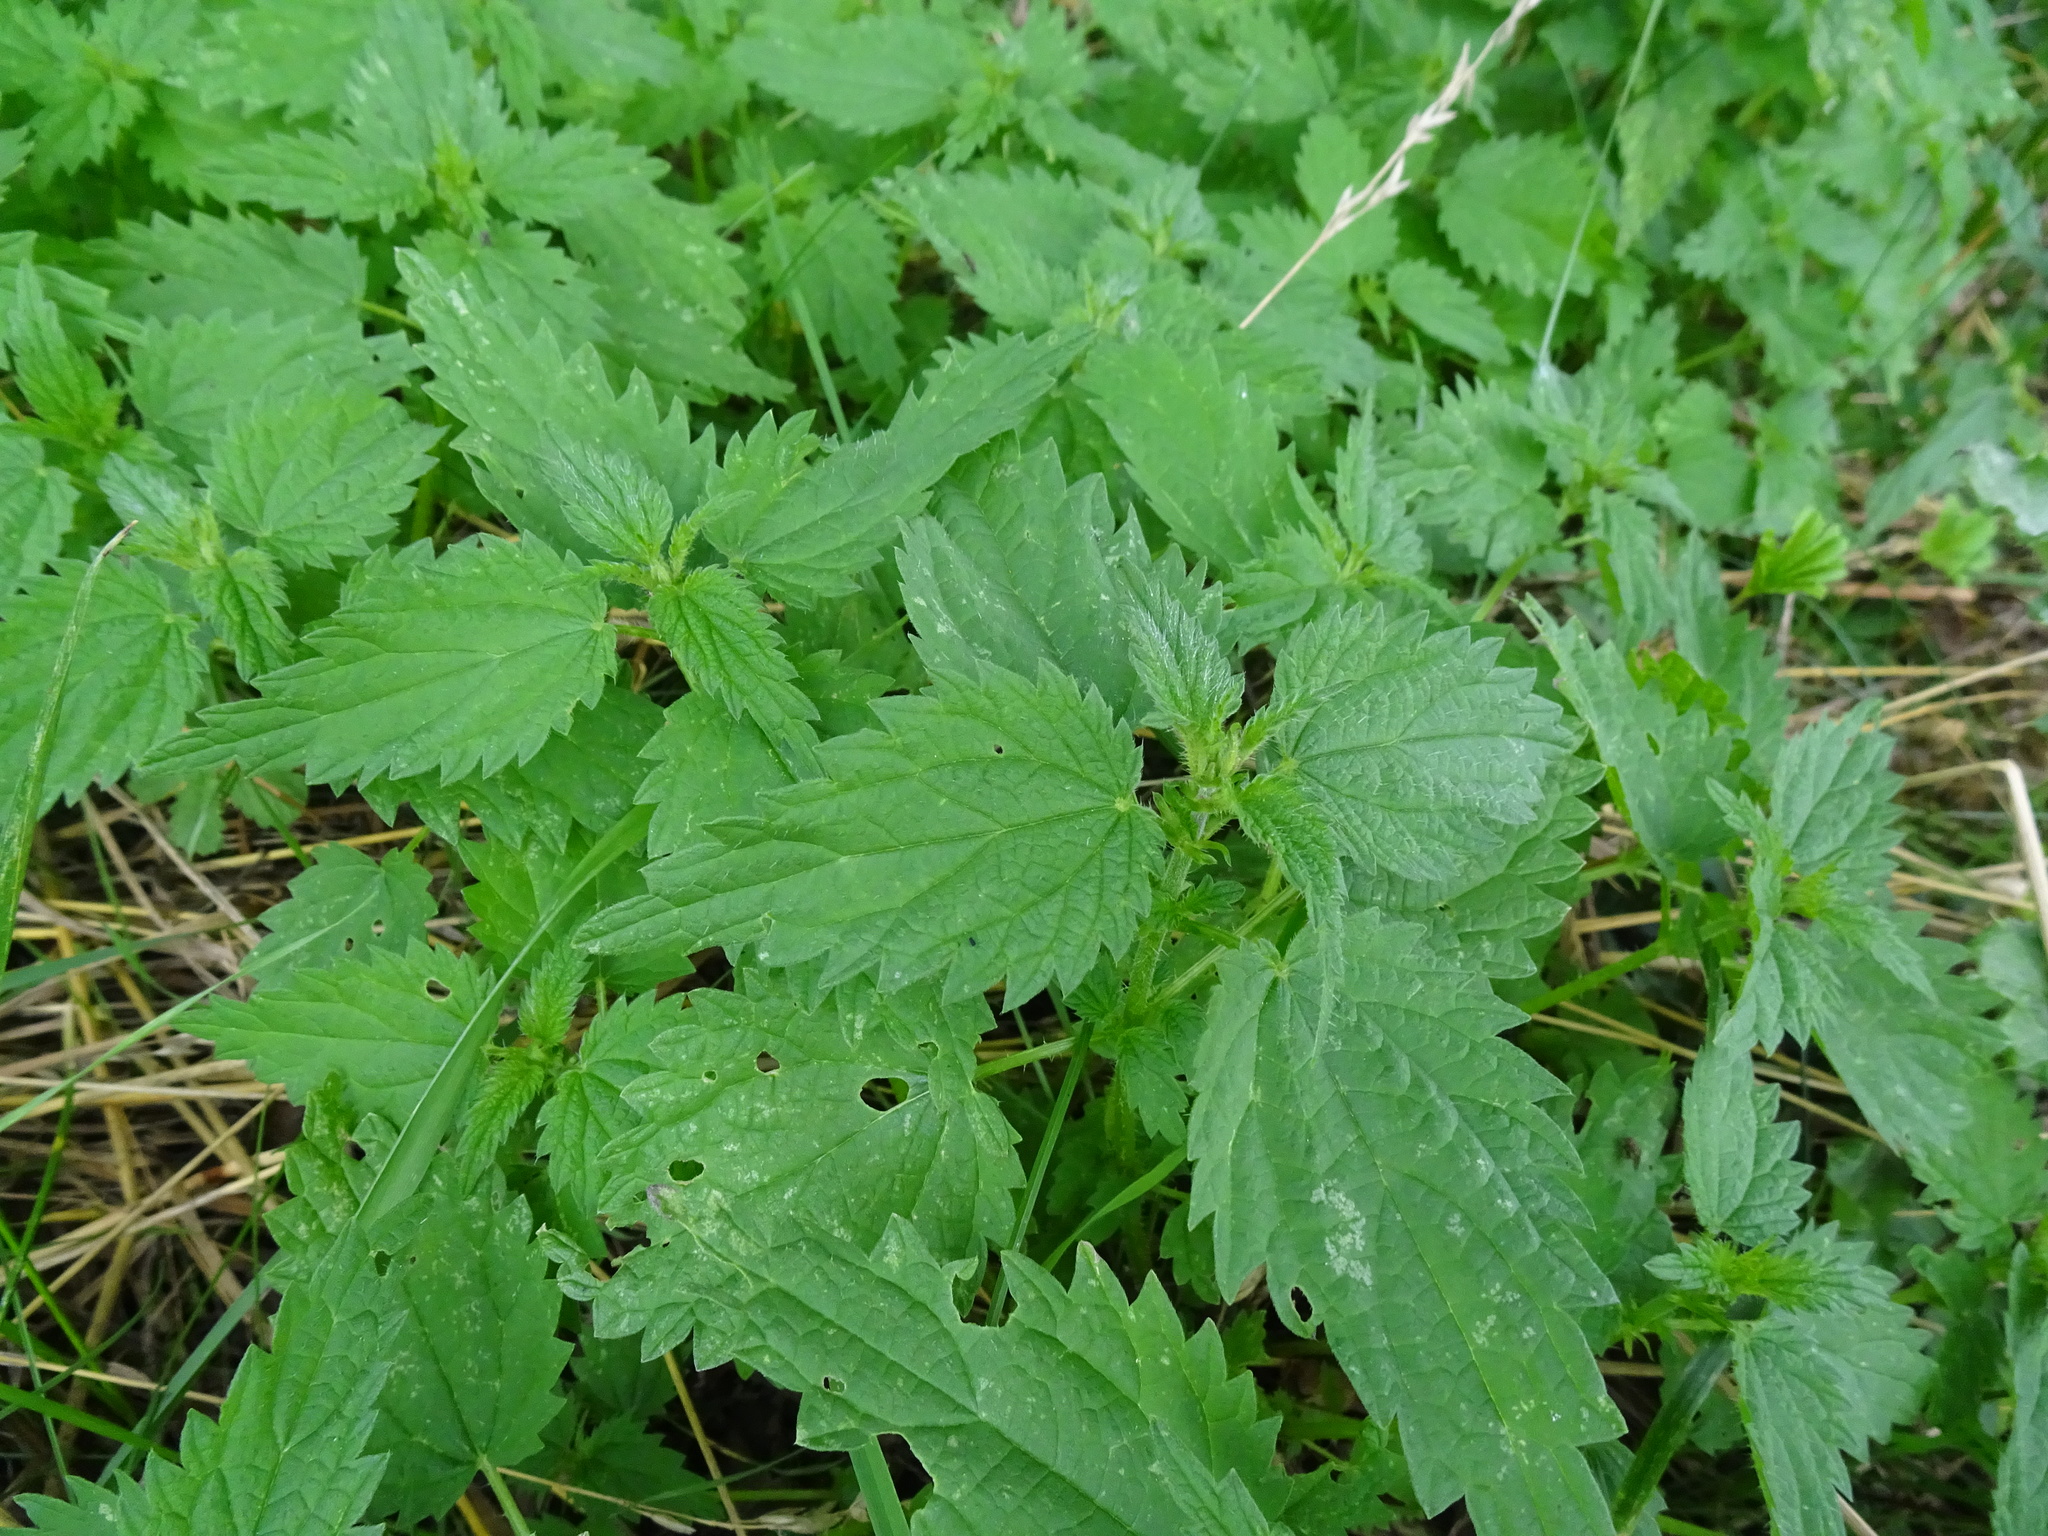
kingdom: Plantae
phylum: Tracheophyta
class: Magnoliopsida
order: Rosales
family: Urticaceae
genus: Urtica
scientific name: Urtica dioica
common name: Common nettle
